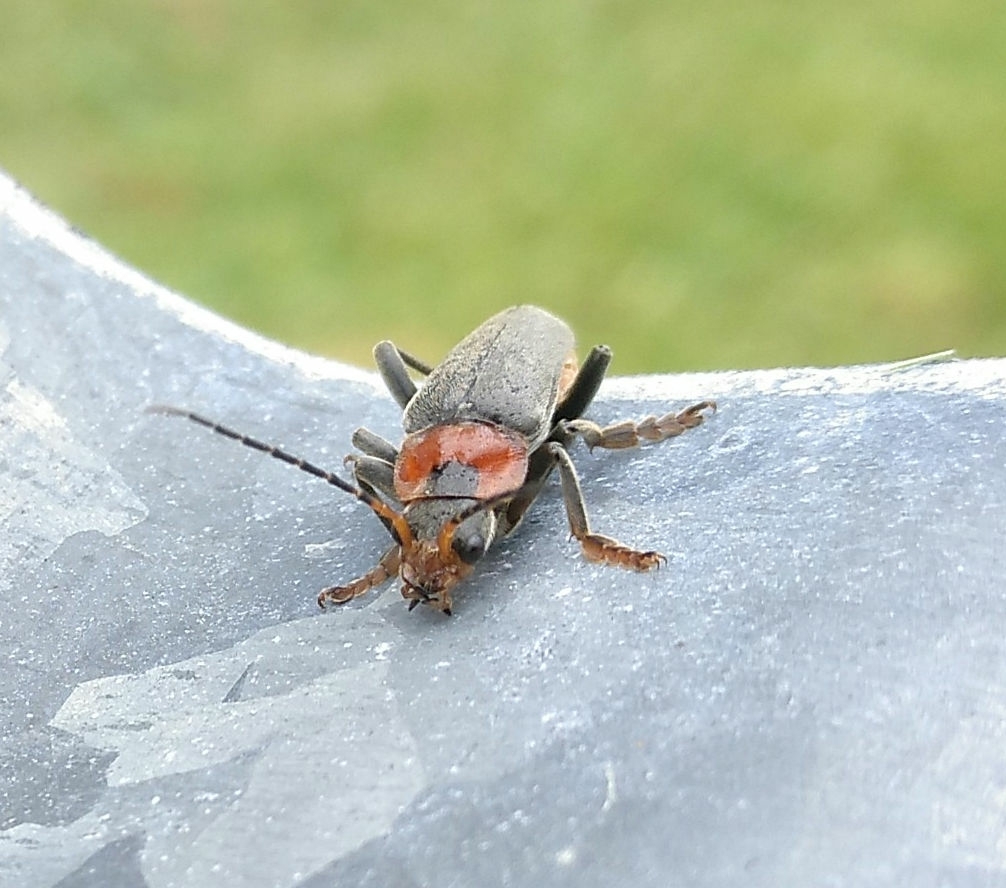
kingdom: Animalia
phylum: Arthropoda
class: Insecta
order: Coleoptera
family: Cantharidae
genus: Cantharis
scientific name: Cantharis fusca
